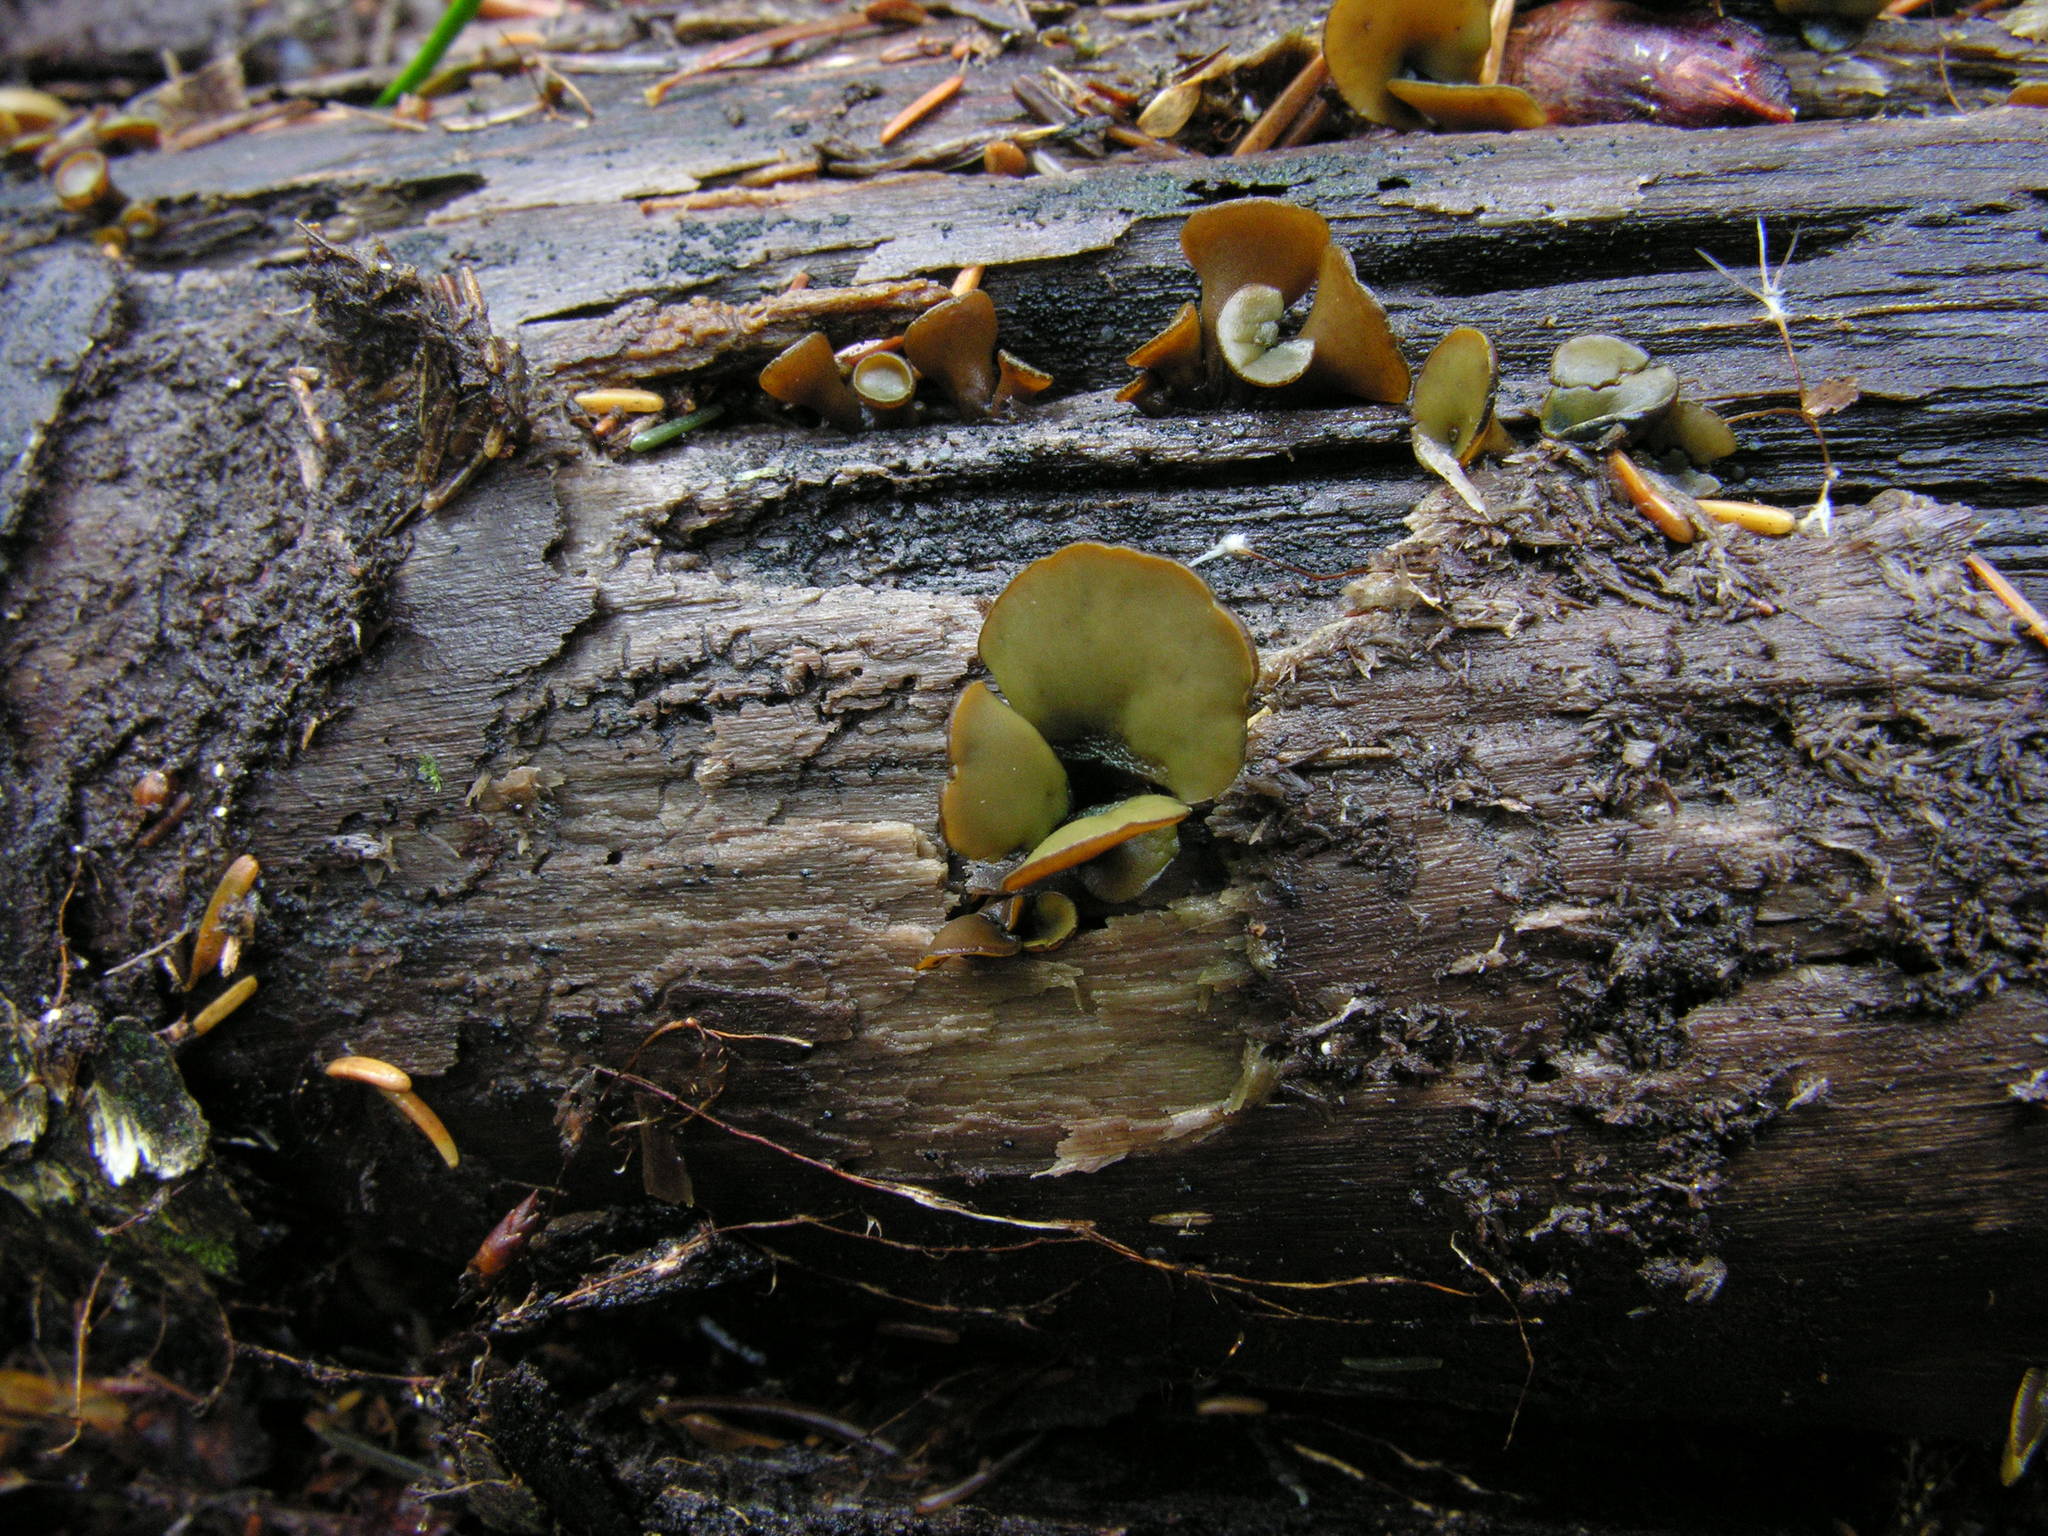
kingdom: Fungi
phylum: Ascomycota
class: Leotiomycetes
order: Helotiales
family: Cenangiaceae
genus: Chlorencoelia
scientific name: Chlorencoelia versiformis
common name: Flea's ear
